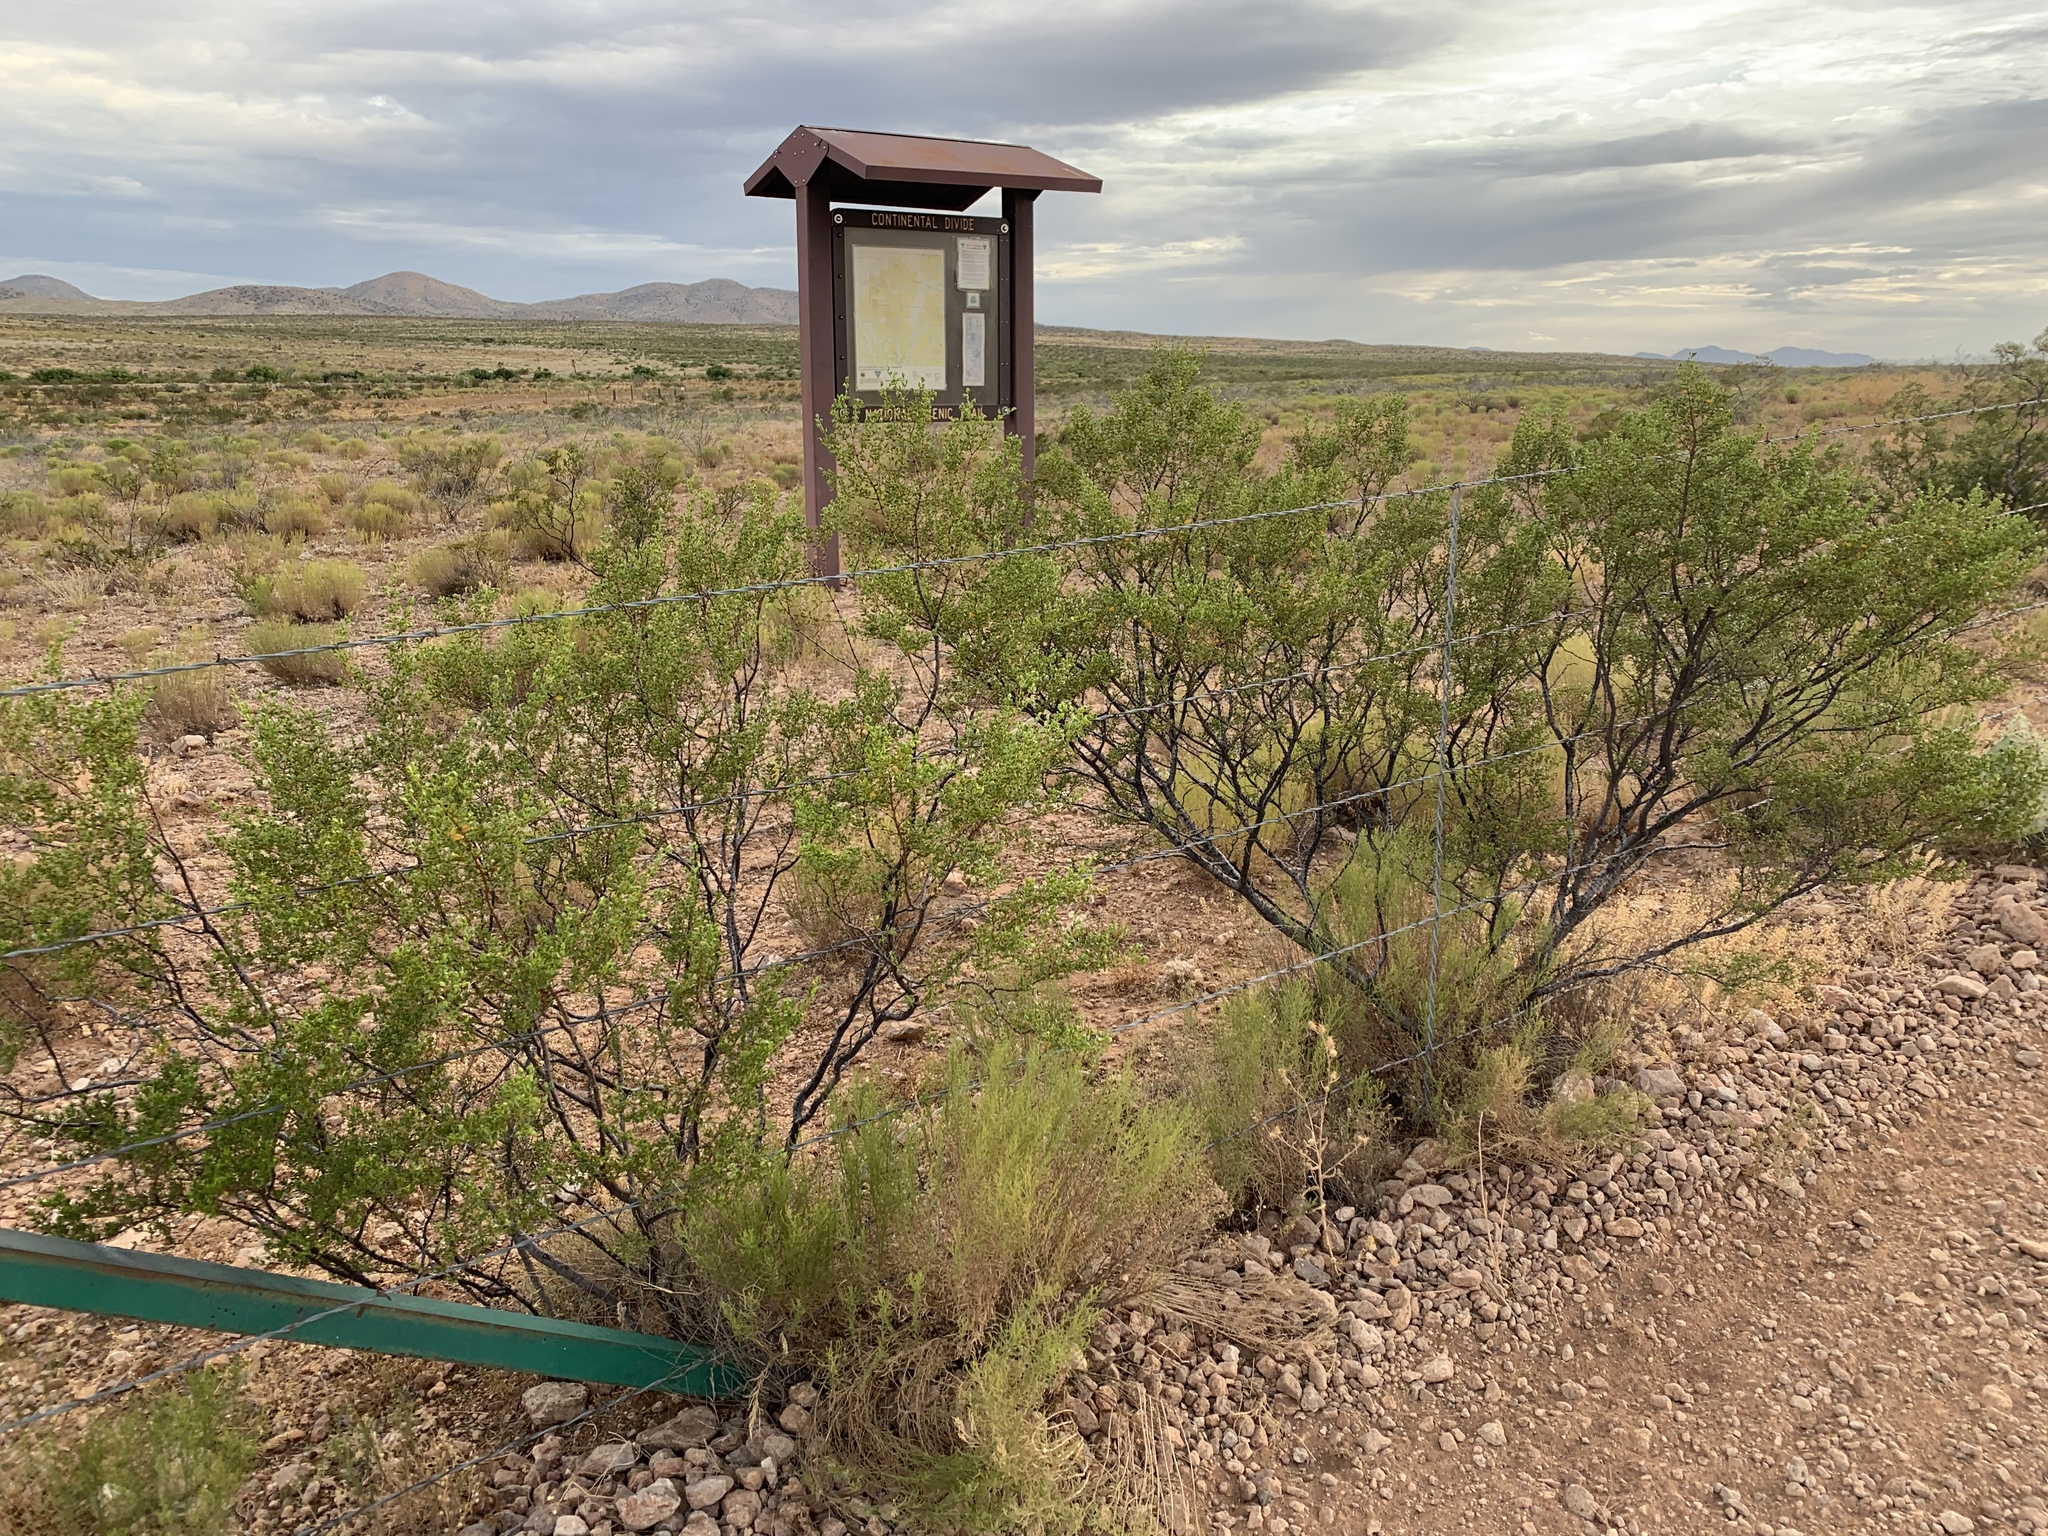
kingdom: Plantae
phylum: Tracheophyta
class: Magnoliopsida
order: Zygophyllales
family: Zygophyllaceae
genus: Larrea
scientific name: Larrea tridentata
